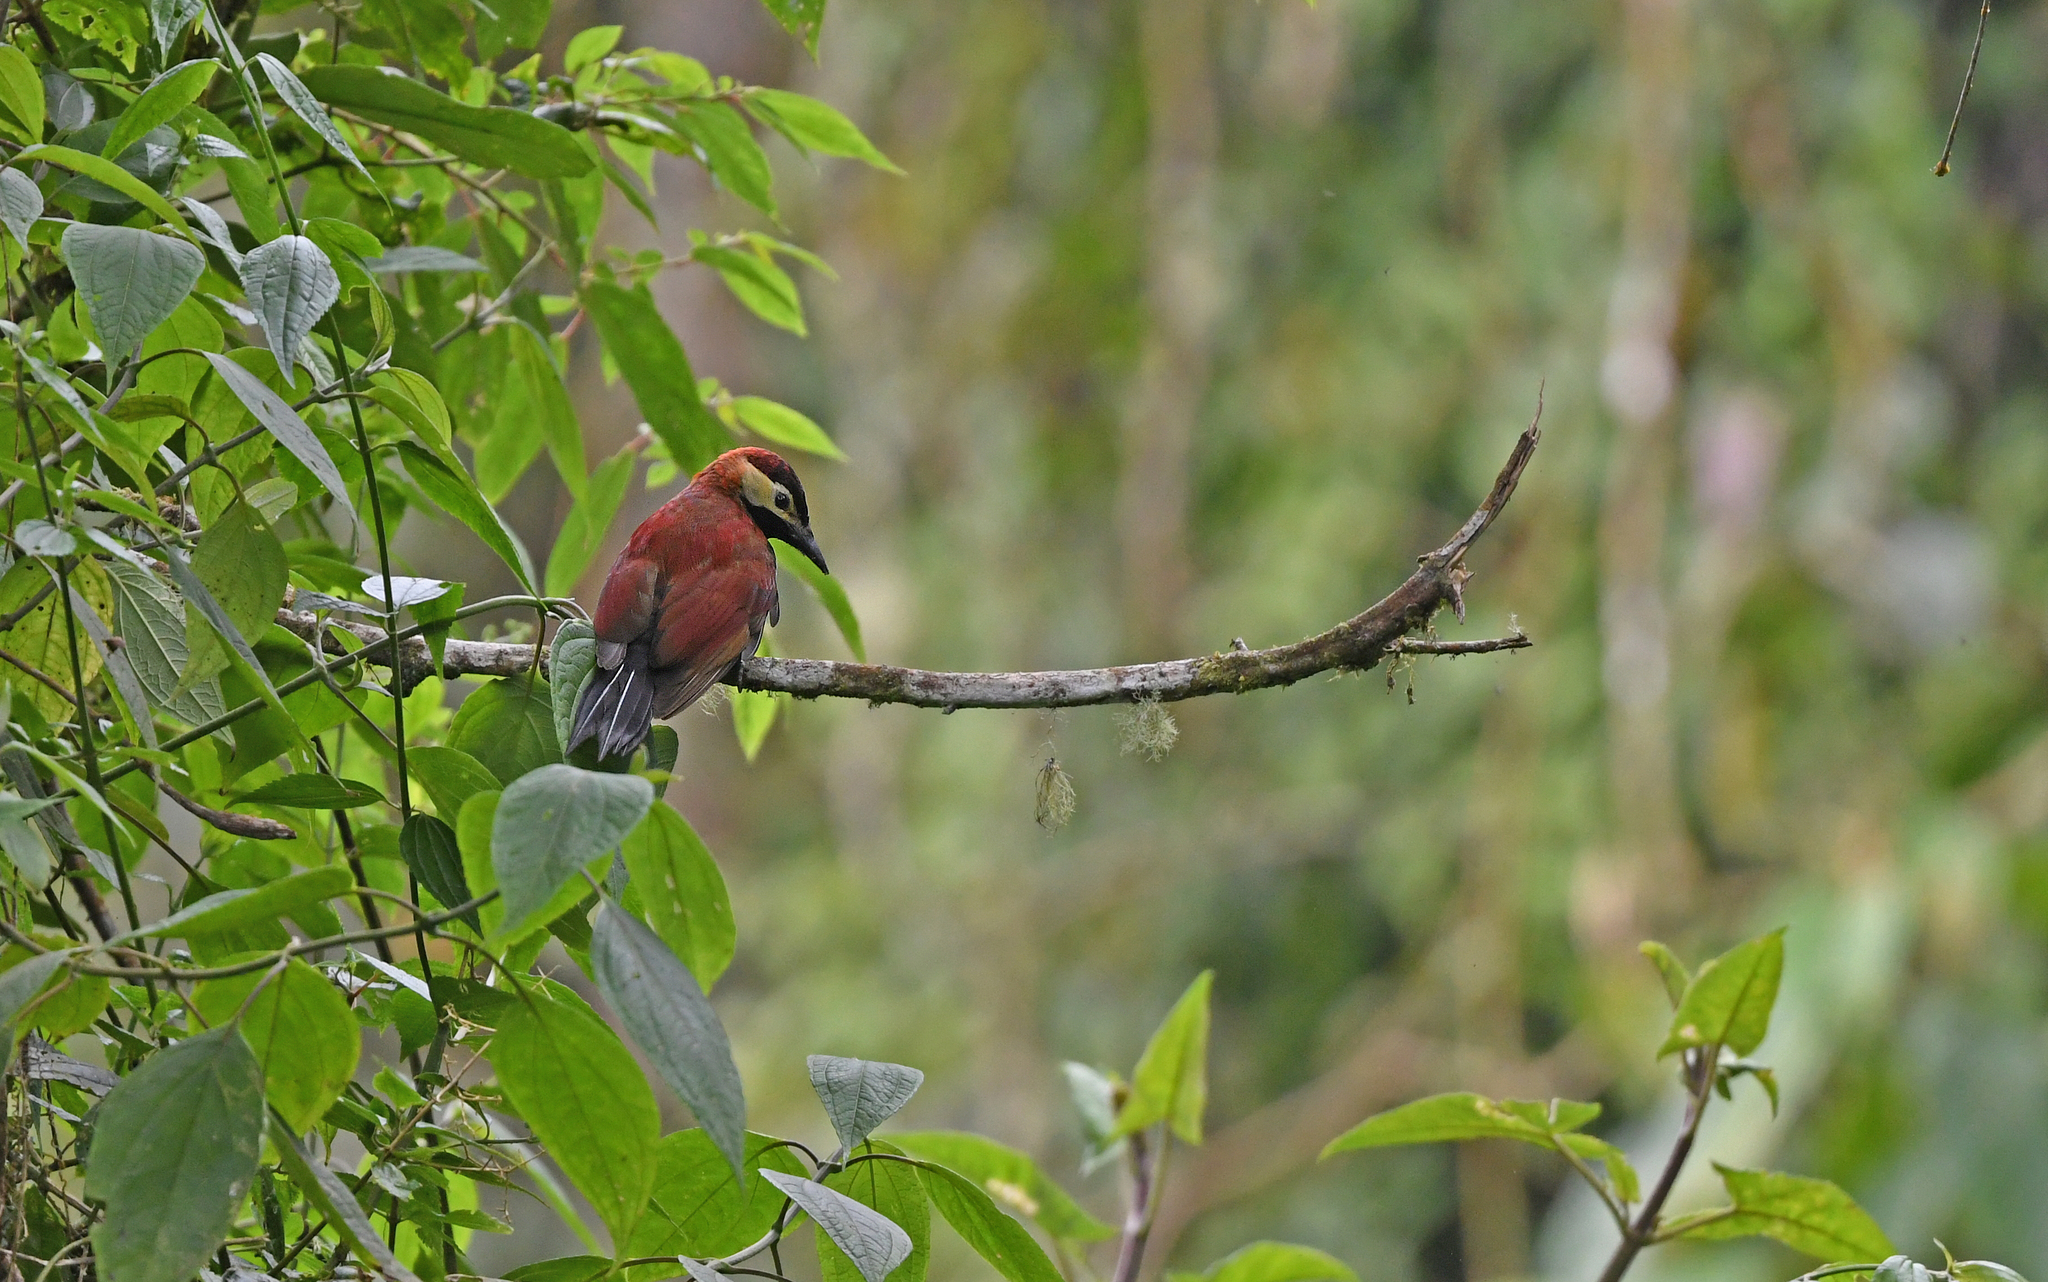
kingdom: Animalia
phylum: Chordata
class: Aves
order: Piciformes
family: Picidae
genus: Colaptes
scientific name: Colaptes rivolii
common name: Crimson-mantled woodpecker
